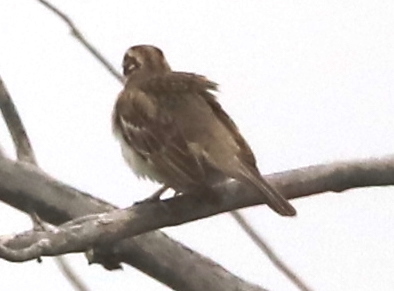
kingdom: Animalia
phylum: Chordata
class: Aves
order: Passeriformes
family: Passerellidae
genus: Chondestes
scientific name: Chondestes grammacus
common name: Lark sparrow
